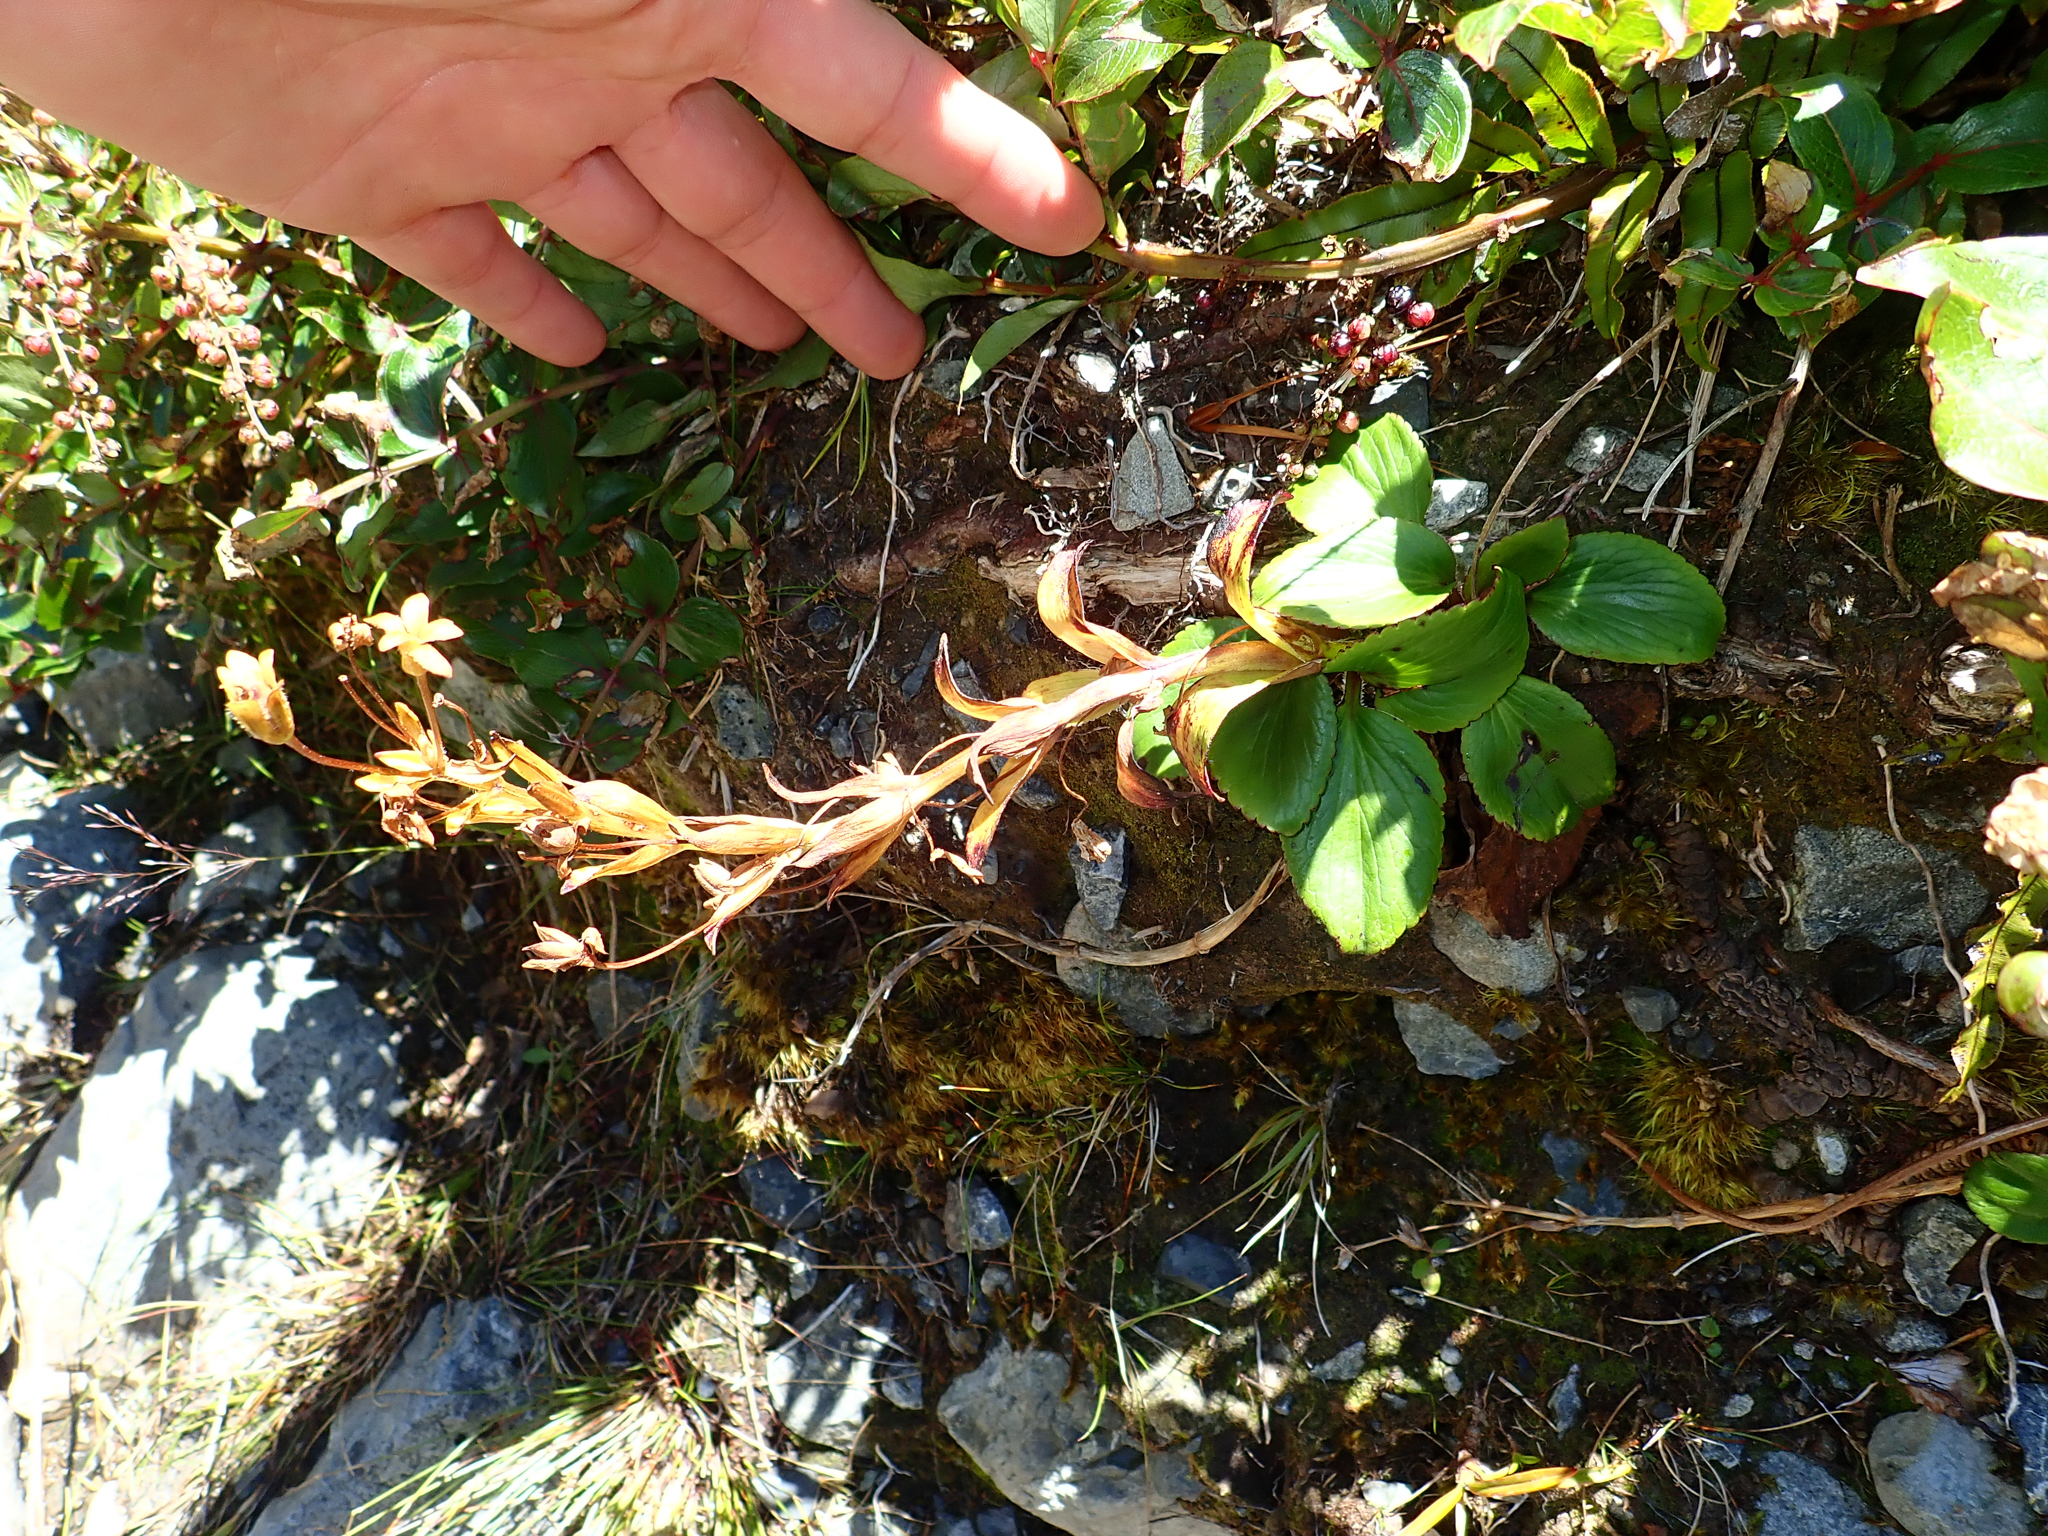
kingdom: Plantae
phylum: Tracheophyta
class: Magnoliopsida
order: Lamiales
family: Plantaginaceae
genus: Ourisia
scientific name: Ourisia calycina
